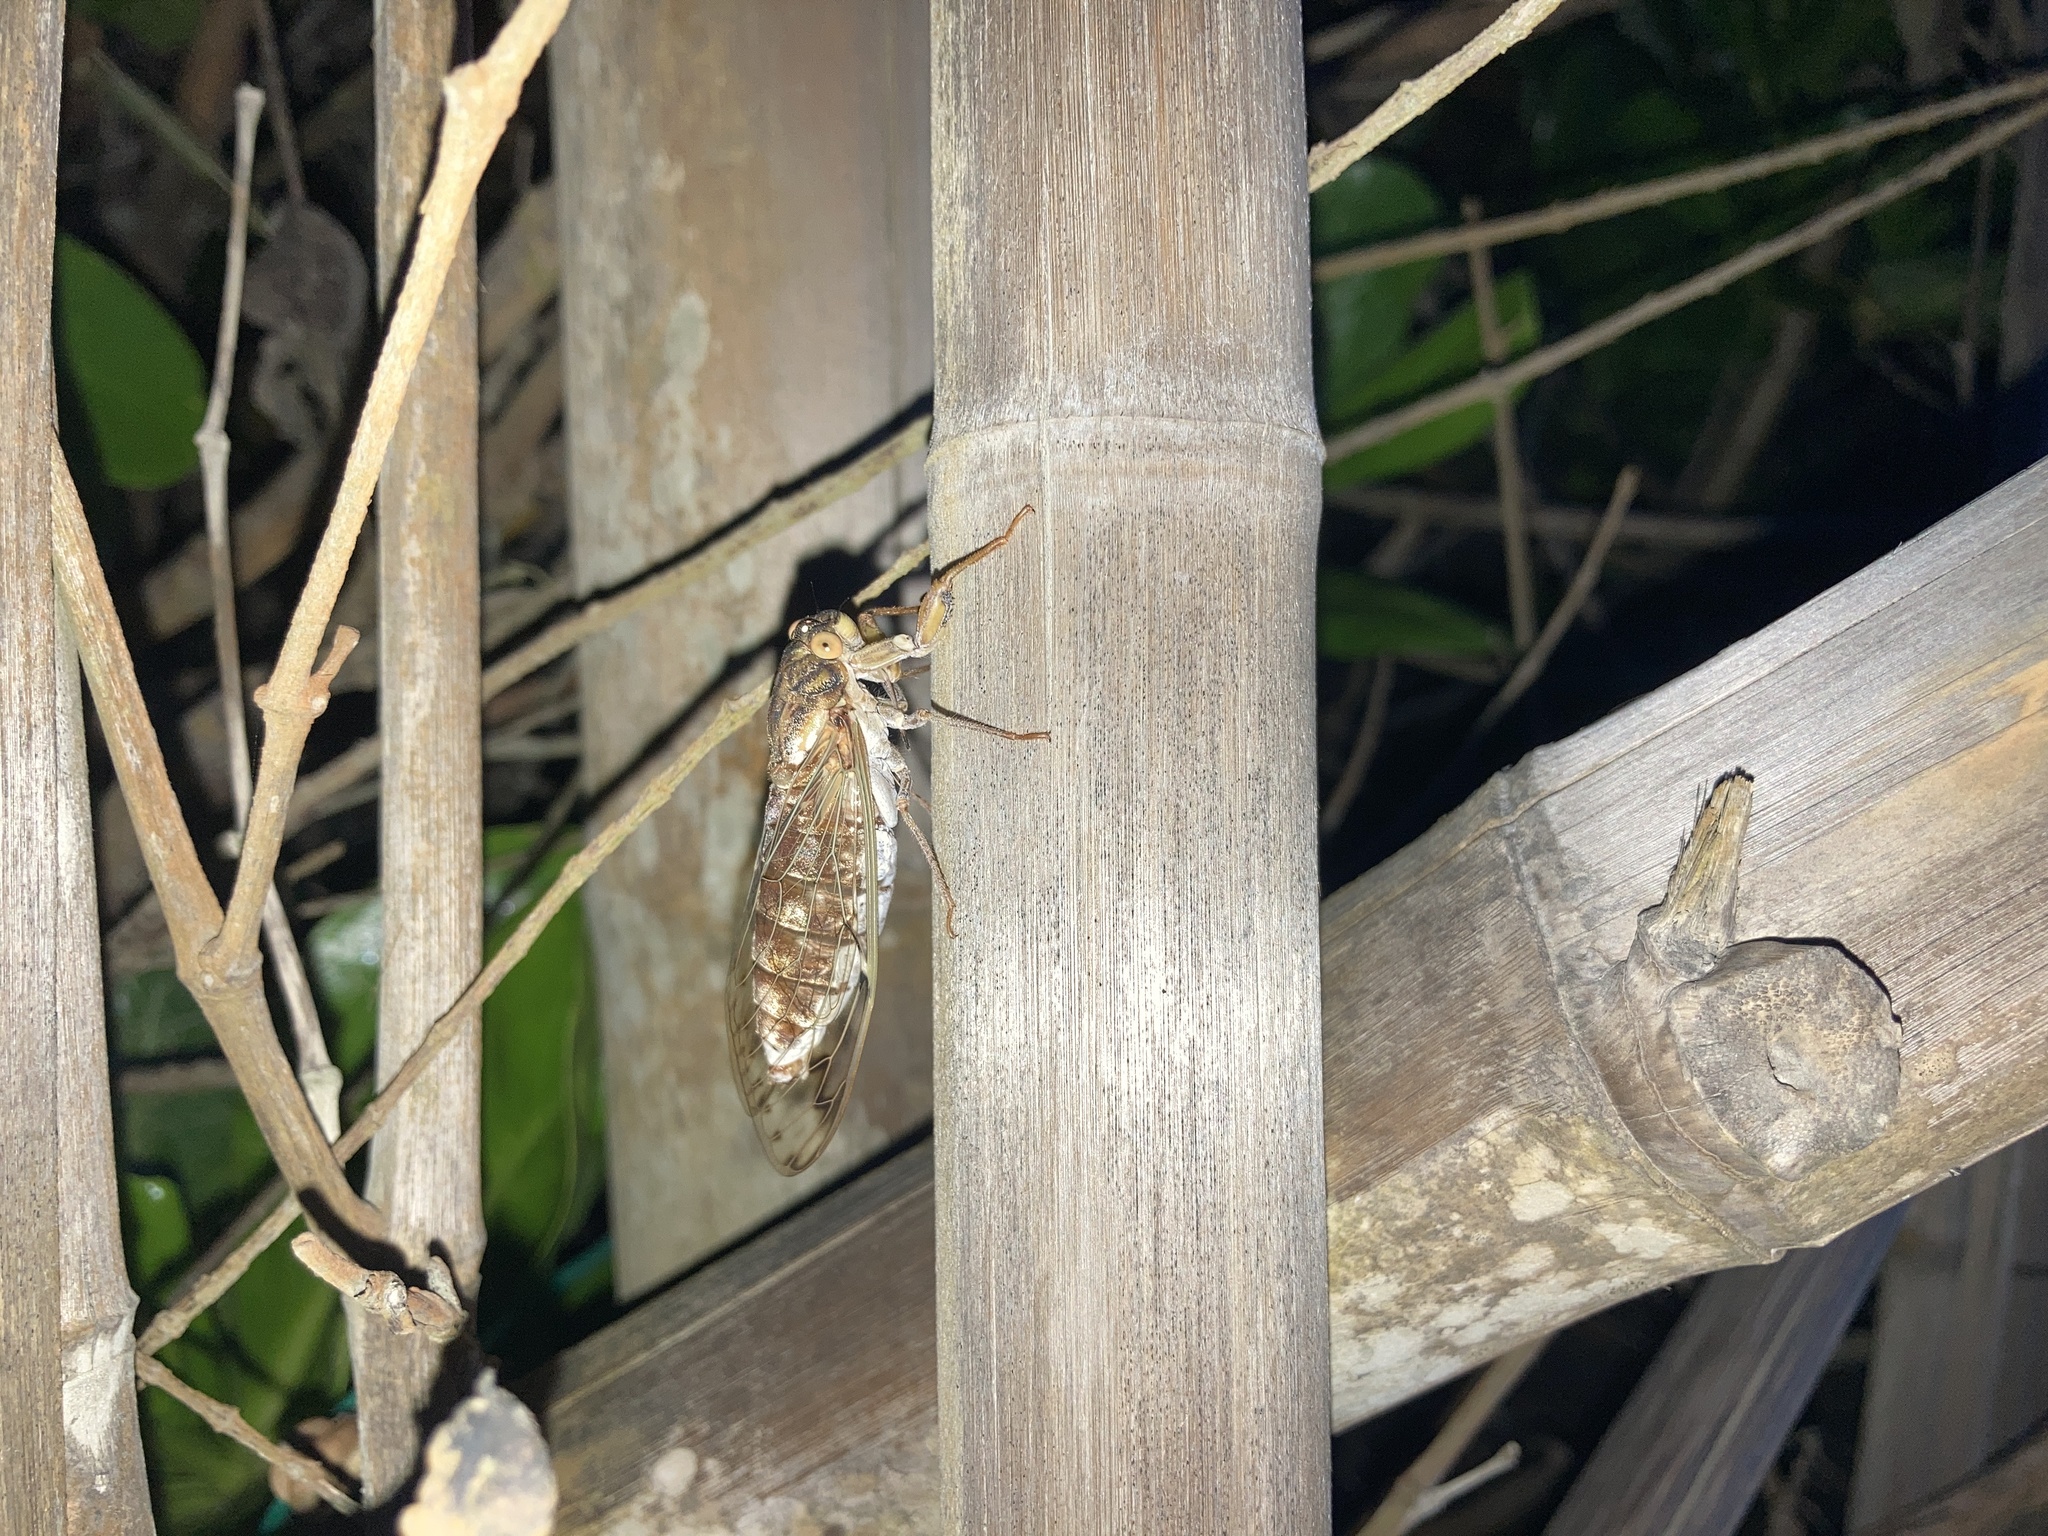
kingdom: Animalia
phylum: Arthropoda
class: Insecta
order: Hemiptera
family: Cicadidae
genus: Taiwanosemia
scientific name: Taiwanosemia hoppoensis
